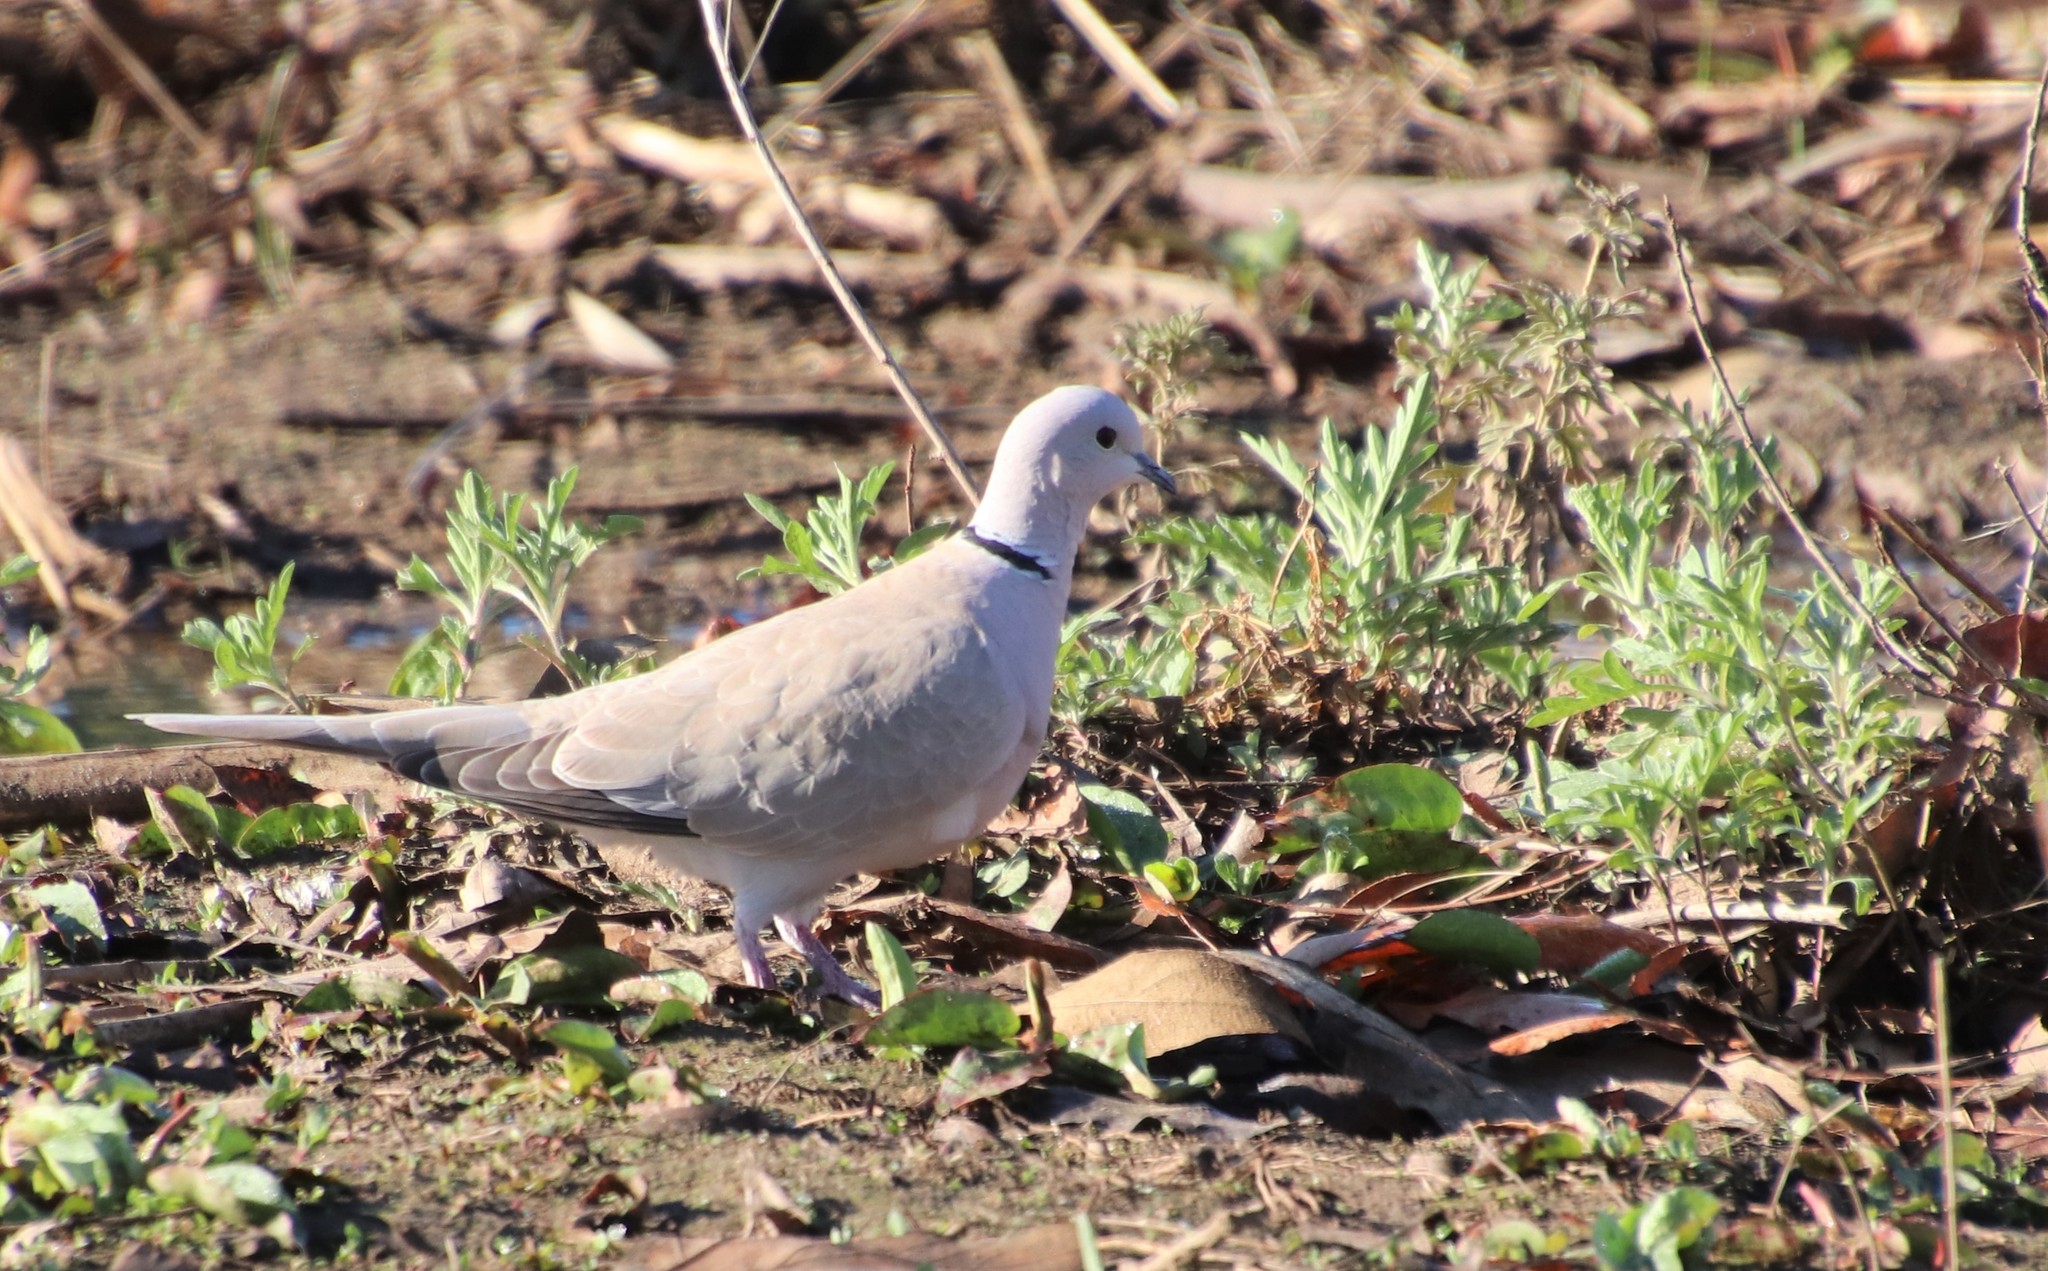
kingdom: Animalia
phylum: Chordata
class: Aves
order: Columbiformes
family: Columbidae
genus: Streptopelia
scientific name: Streptopelia decaocto
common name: Eurasian collared dove
